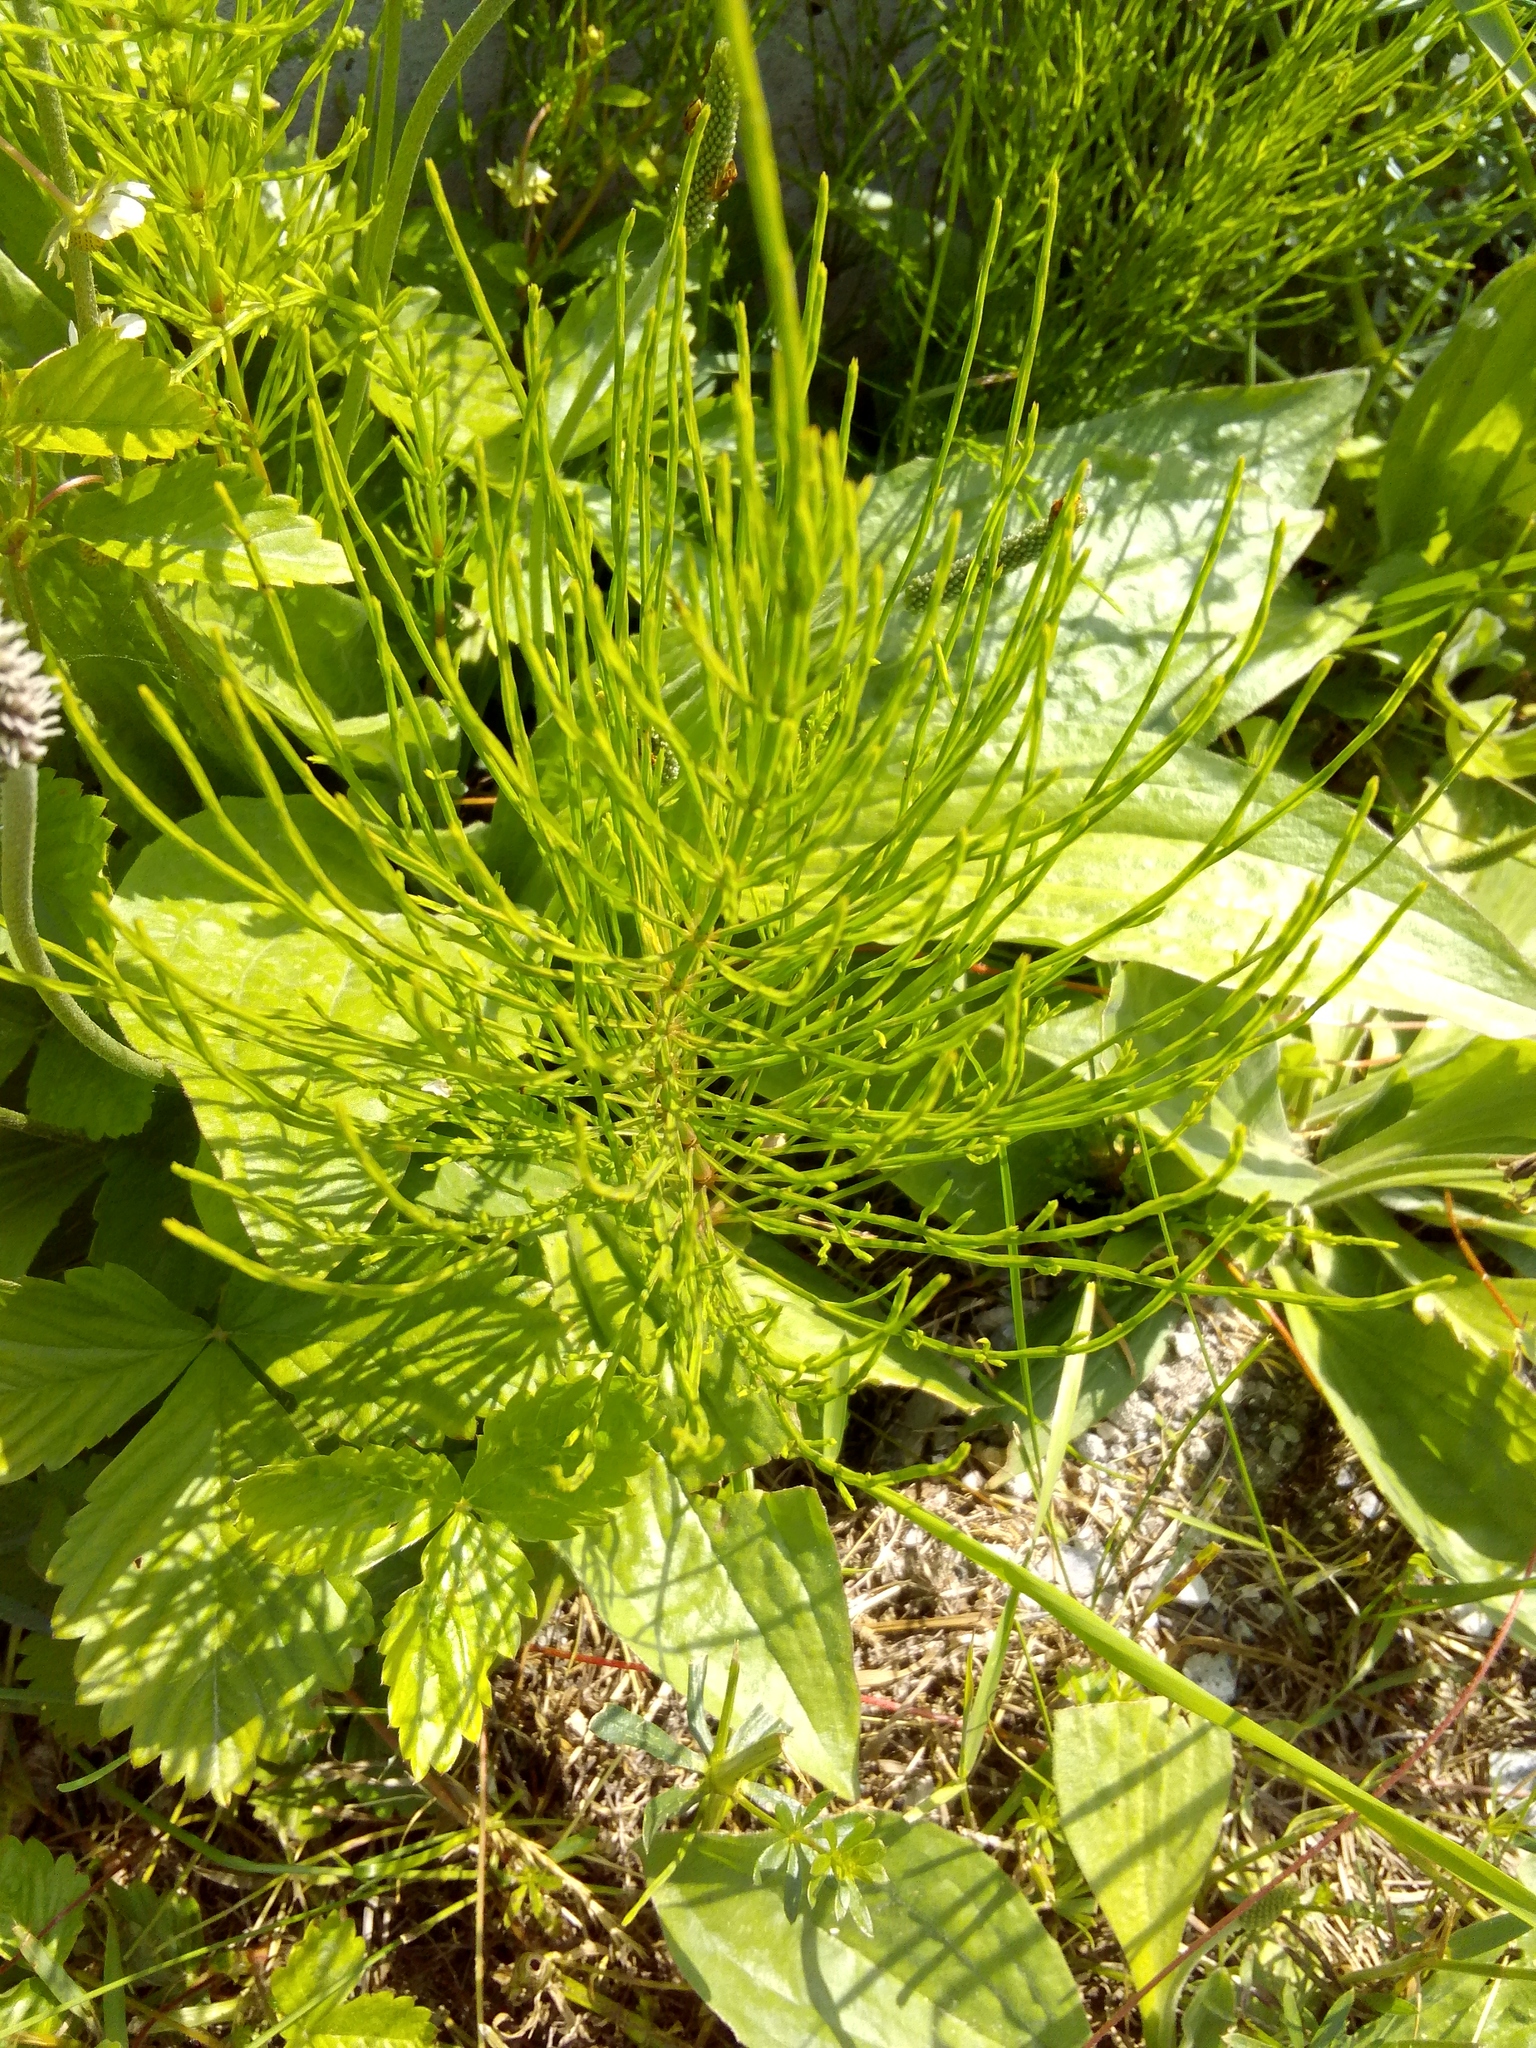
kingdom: Plantae
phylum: Tracheophyta
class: Polypodiopsida
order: Equisetales
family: Equisetaceae
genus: Equisetum
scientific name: Equisetum arvense
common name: Field horsetail
